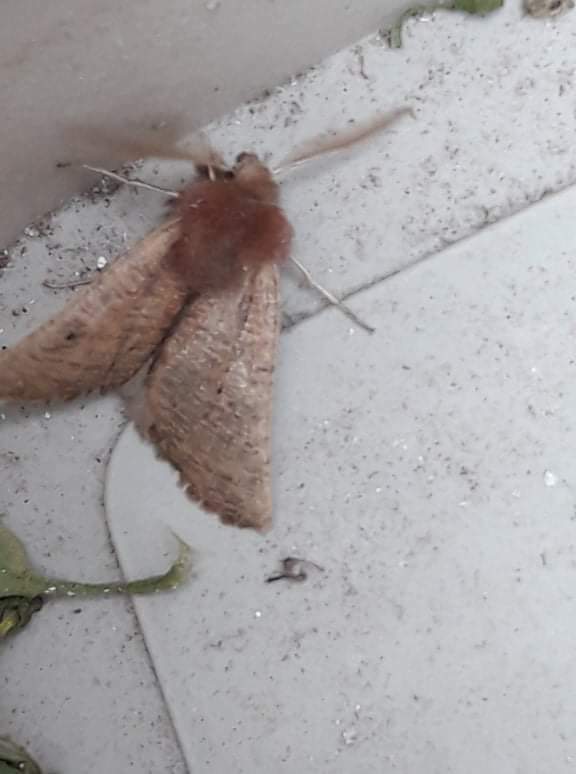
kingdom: Animalia
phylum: Arthropoda
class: Insecta
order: Lepidoptera
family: Geometridae
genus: Dasycorsa
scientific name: Dasycorsa modesta
